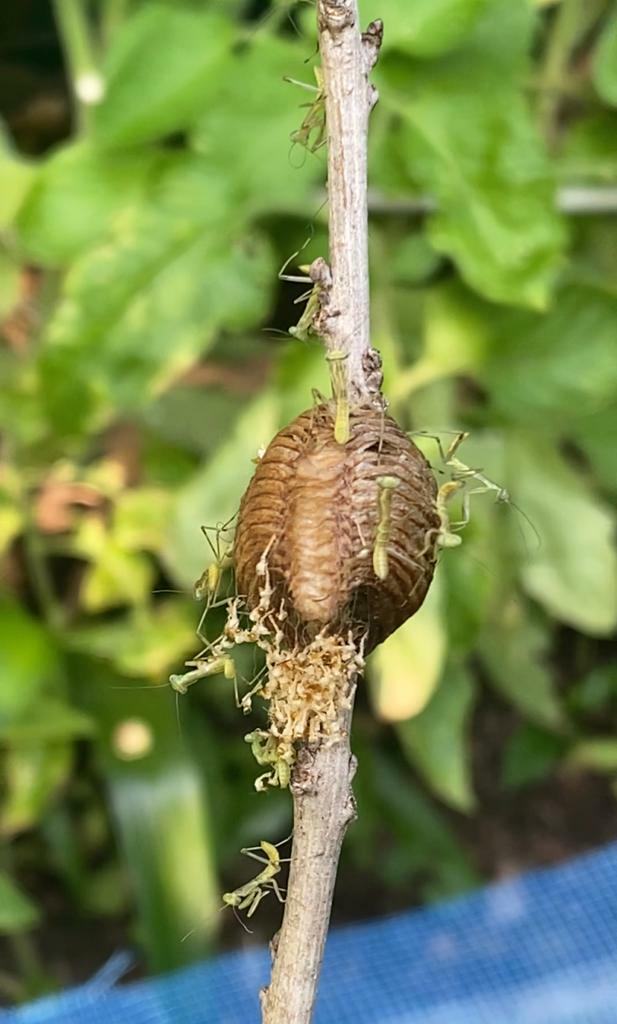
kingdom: Animalia
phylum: Arthropoda
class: Insecta
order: Mantodea
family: Mantidae
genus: Hierodula
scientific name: Hierodula transcaucasica
